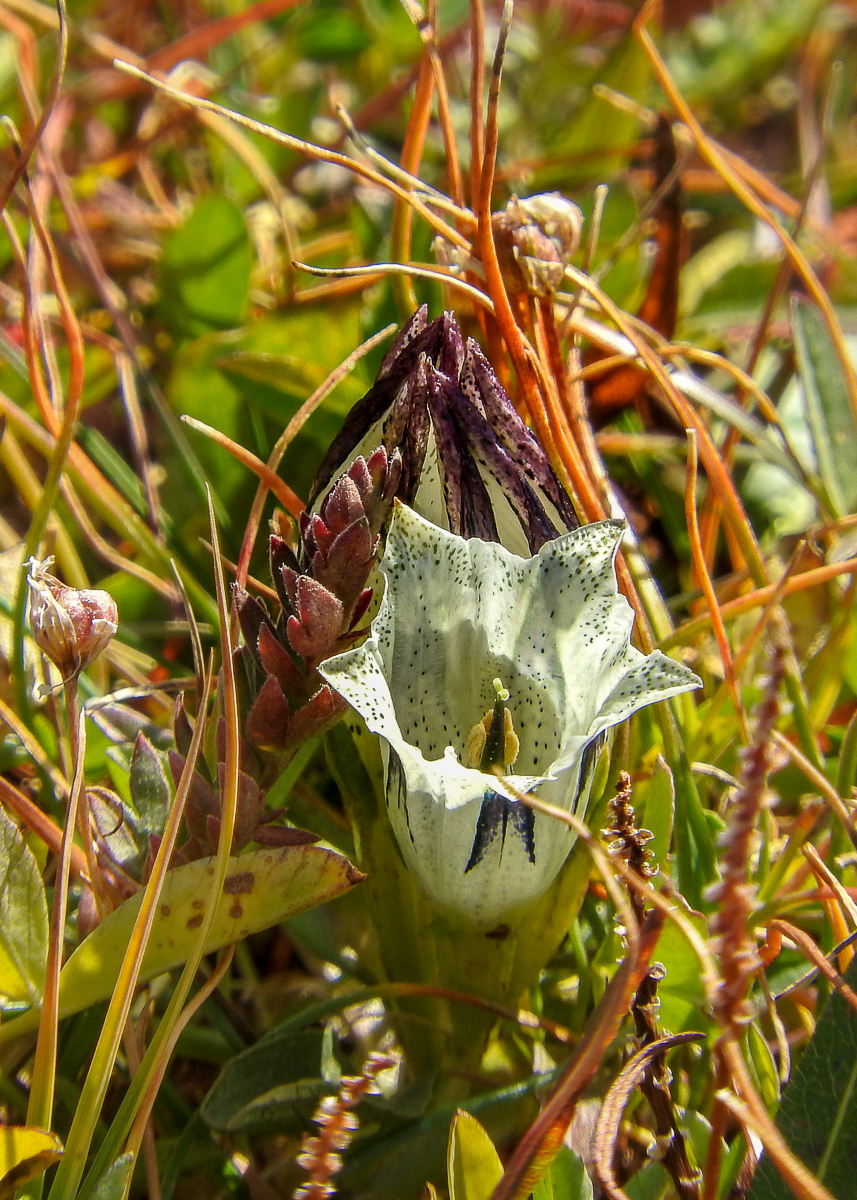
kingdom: Plantae
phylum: Tracheophyta
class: Magnoliopsida
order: Gentianales
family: Gentianaceae
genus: Gentiana
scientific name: Gentiana algida
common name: Arctic gentian
